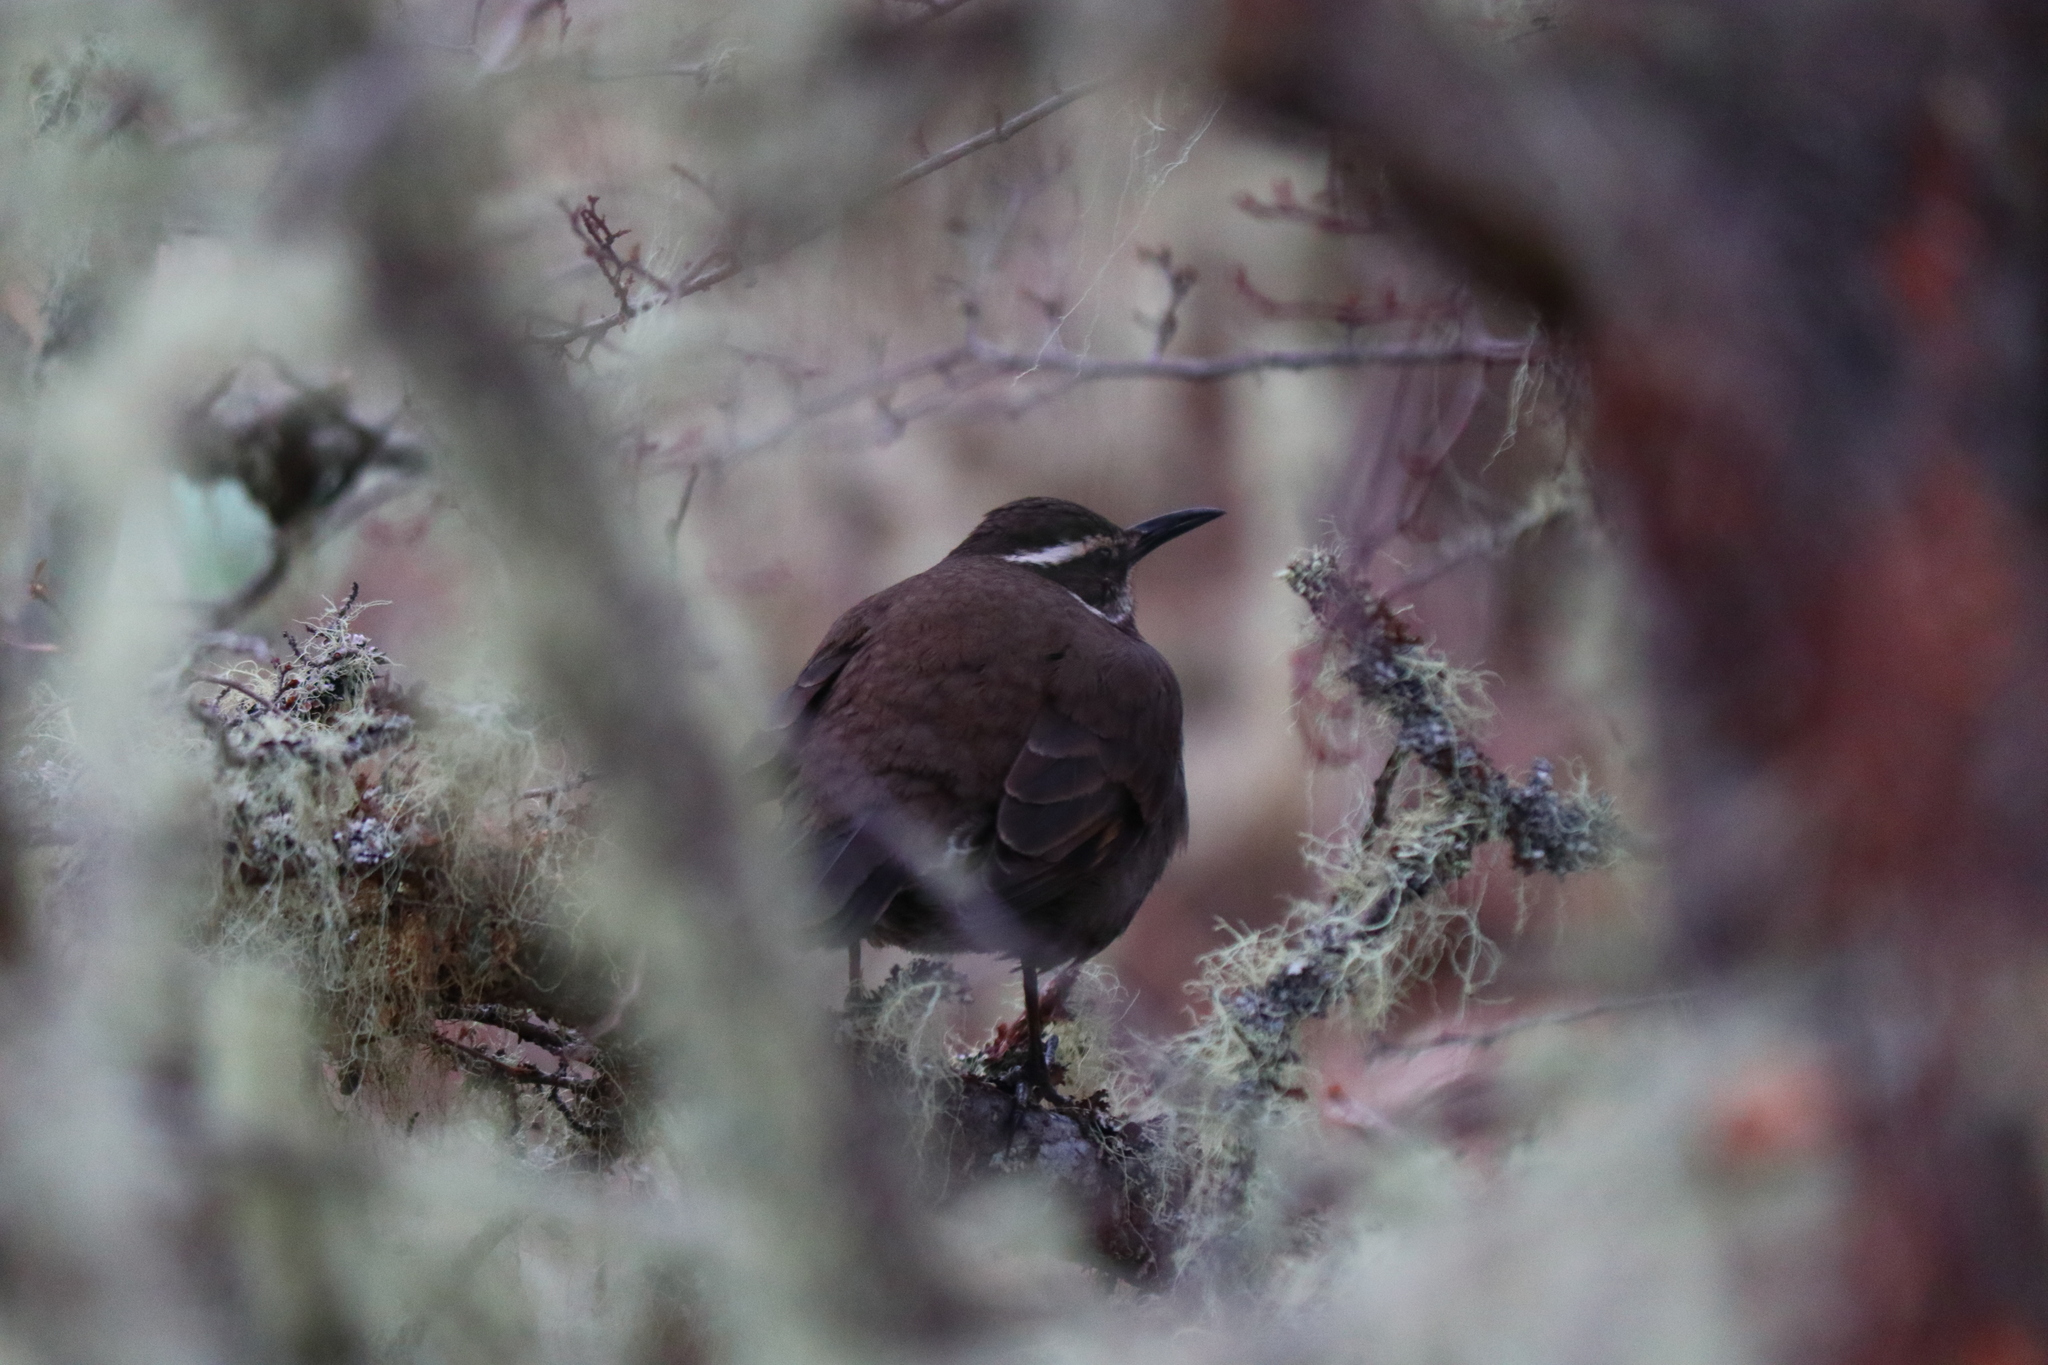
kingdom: Animalia
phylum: Chordata
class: Aves
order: Passeriformes
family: Furnariidae
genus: Cinclodes
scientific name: Cinclodes patagonicus
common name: Dark-bellied cinclodes
